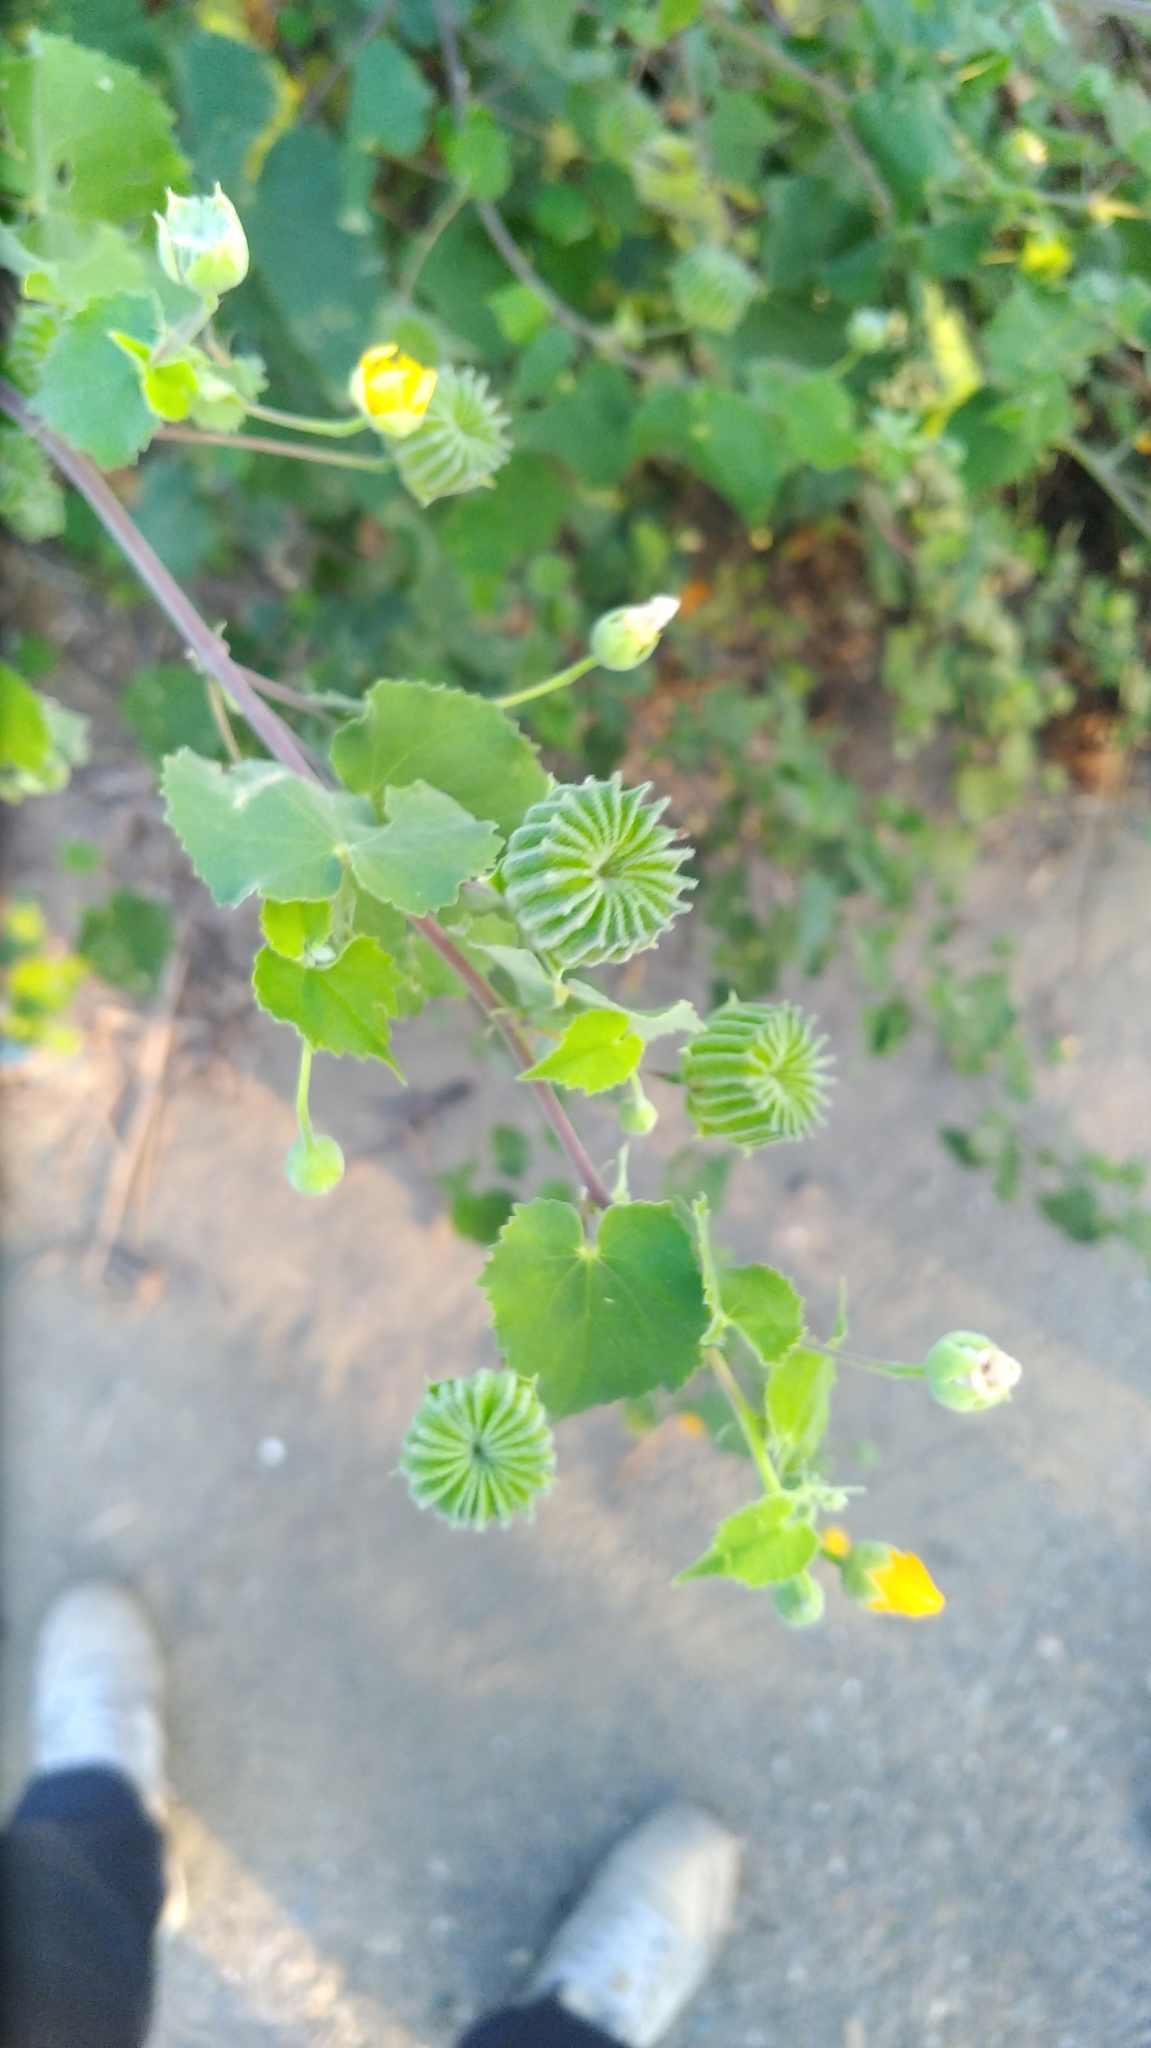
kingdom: Plantae
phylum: Tracheophyta
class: Magnoliopsida
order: Malvales
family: Malvaceae
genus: Abutilon
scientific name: Abutilon indicum
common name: Indian abutilon
